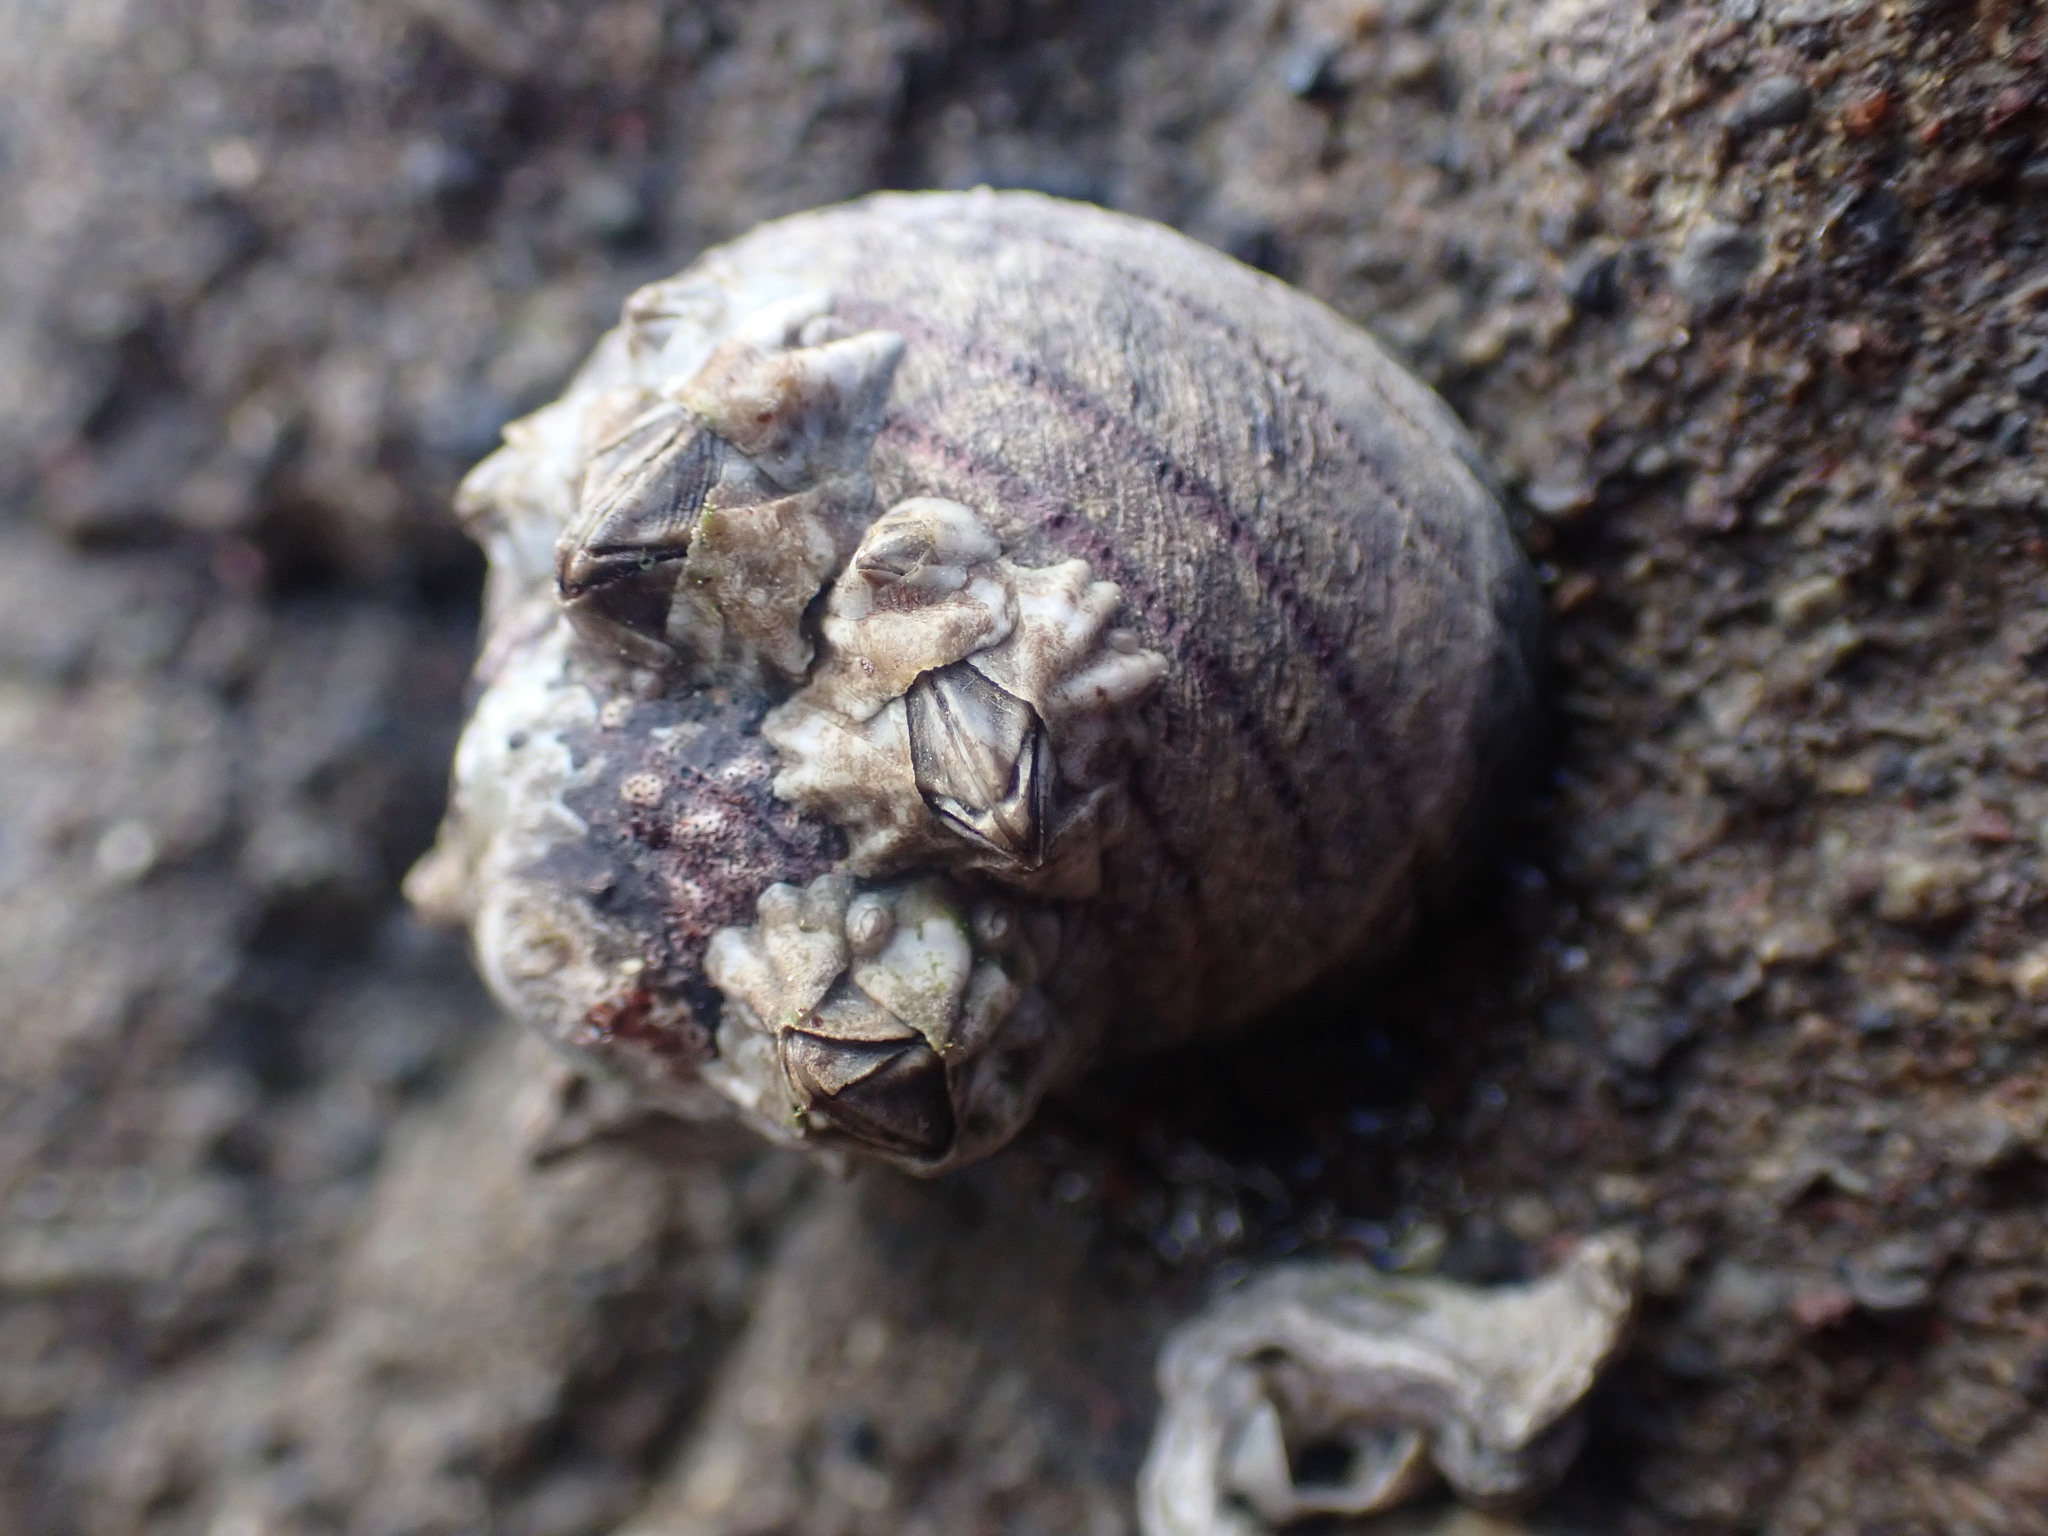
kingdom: Animalia
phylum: Mollusca
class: Gastropoda
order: Trochida
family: Trochidae
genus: Diloma
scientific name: Diloma aethiops
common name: Scorched monodont
